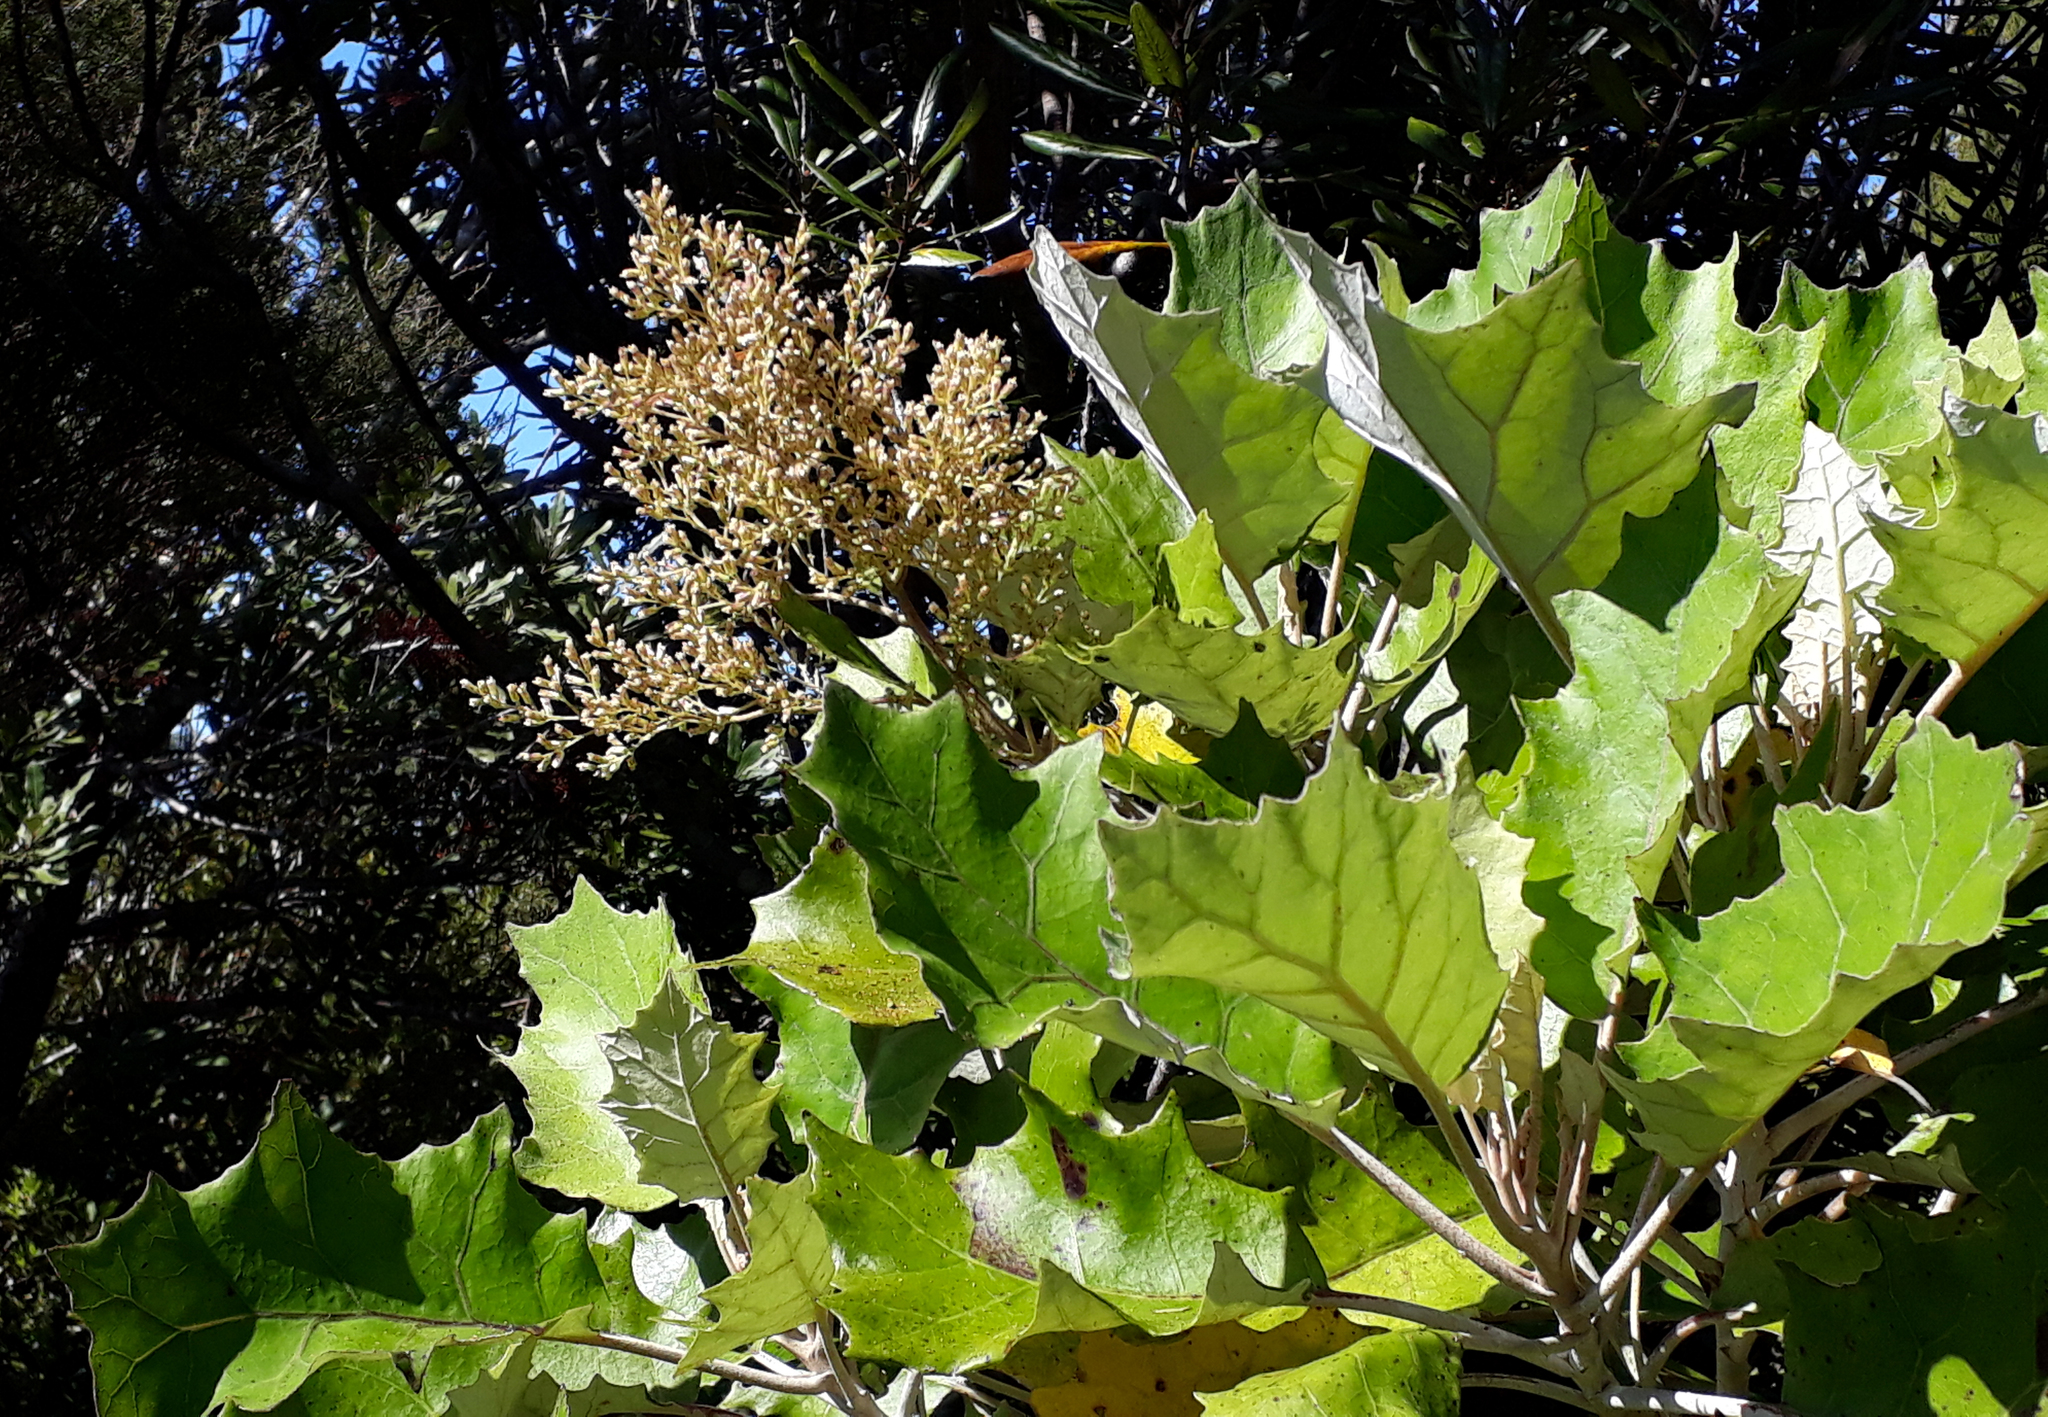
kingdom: Plantae
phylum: Tracheophyta
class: Magnoliopsida
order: Asterales
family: Asteraceae
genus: Brachyglottis
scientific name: Brachyglottis repanda
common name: Hedge ragwort
